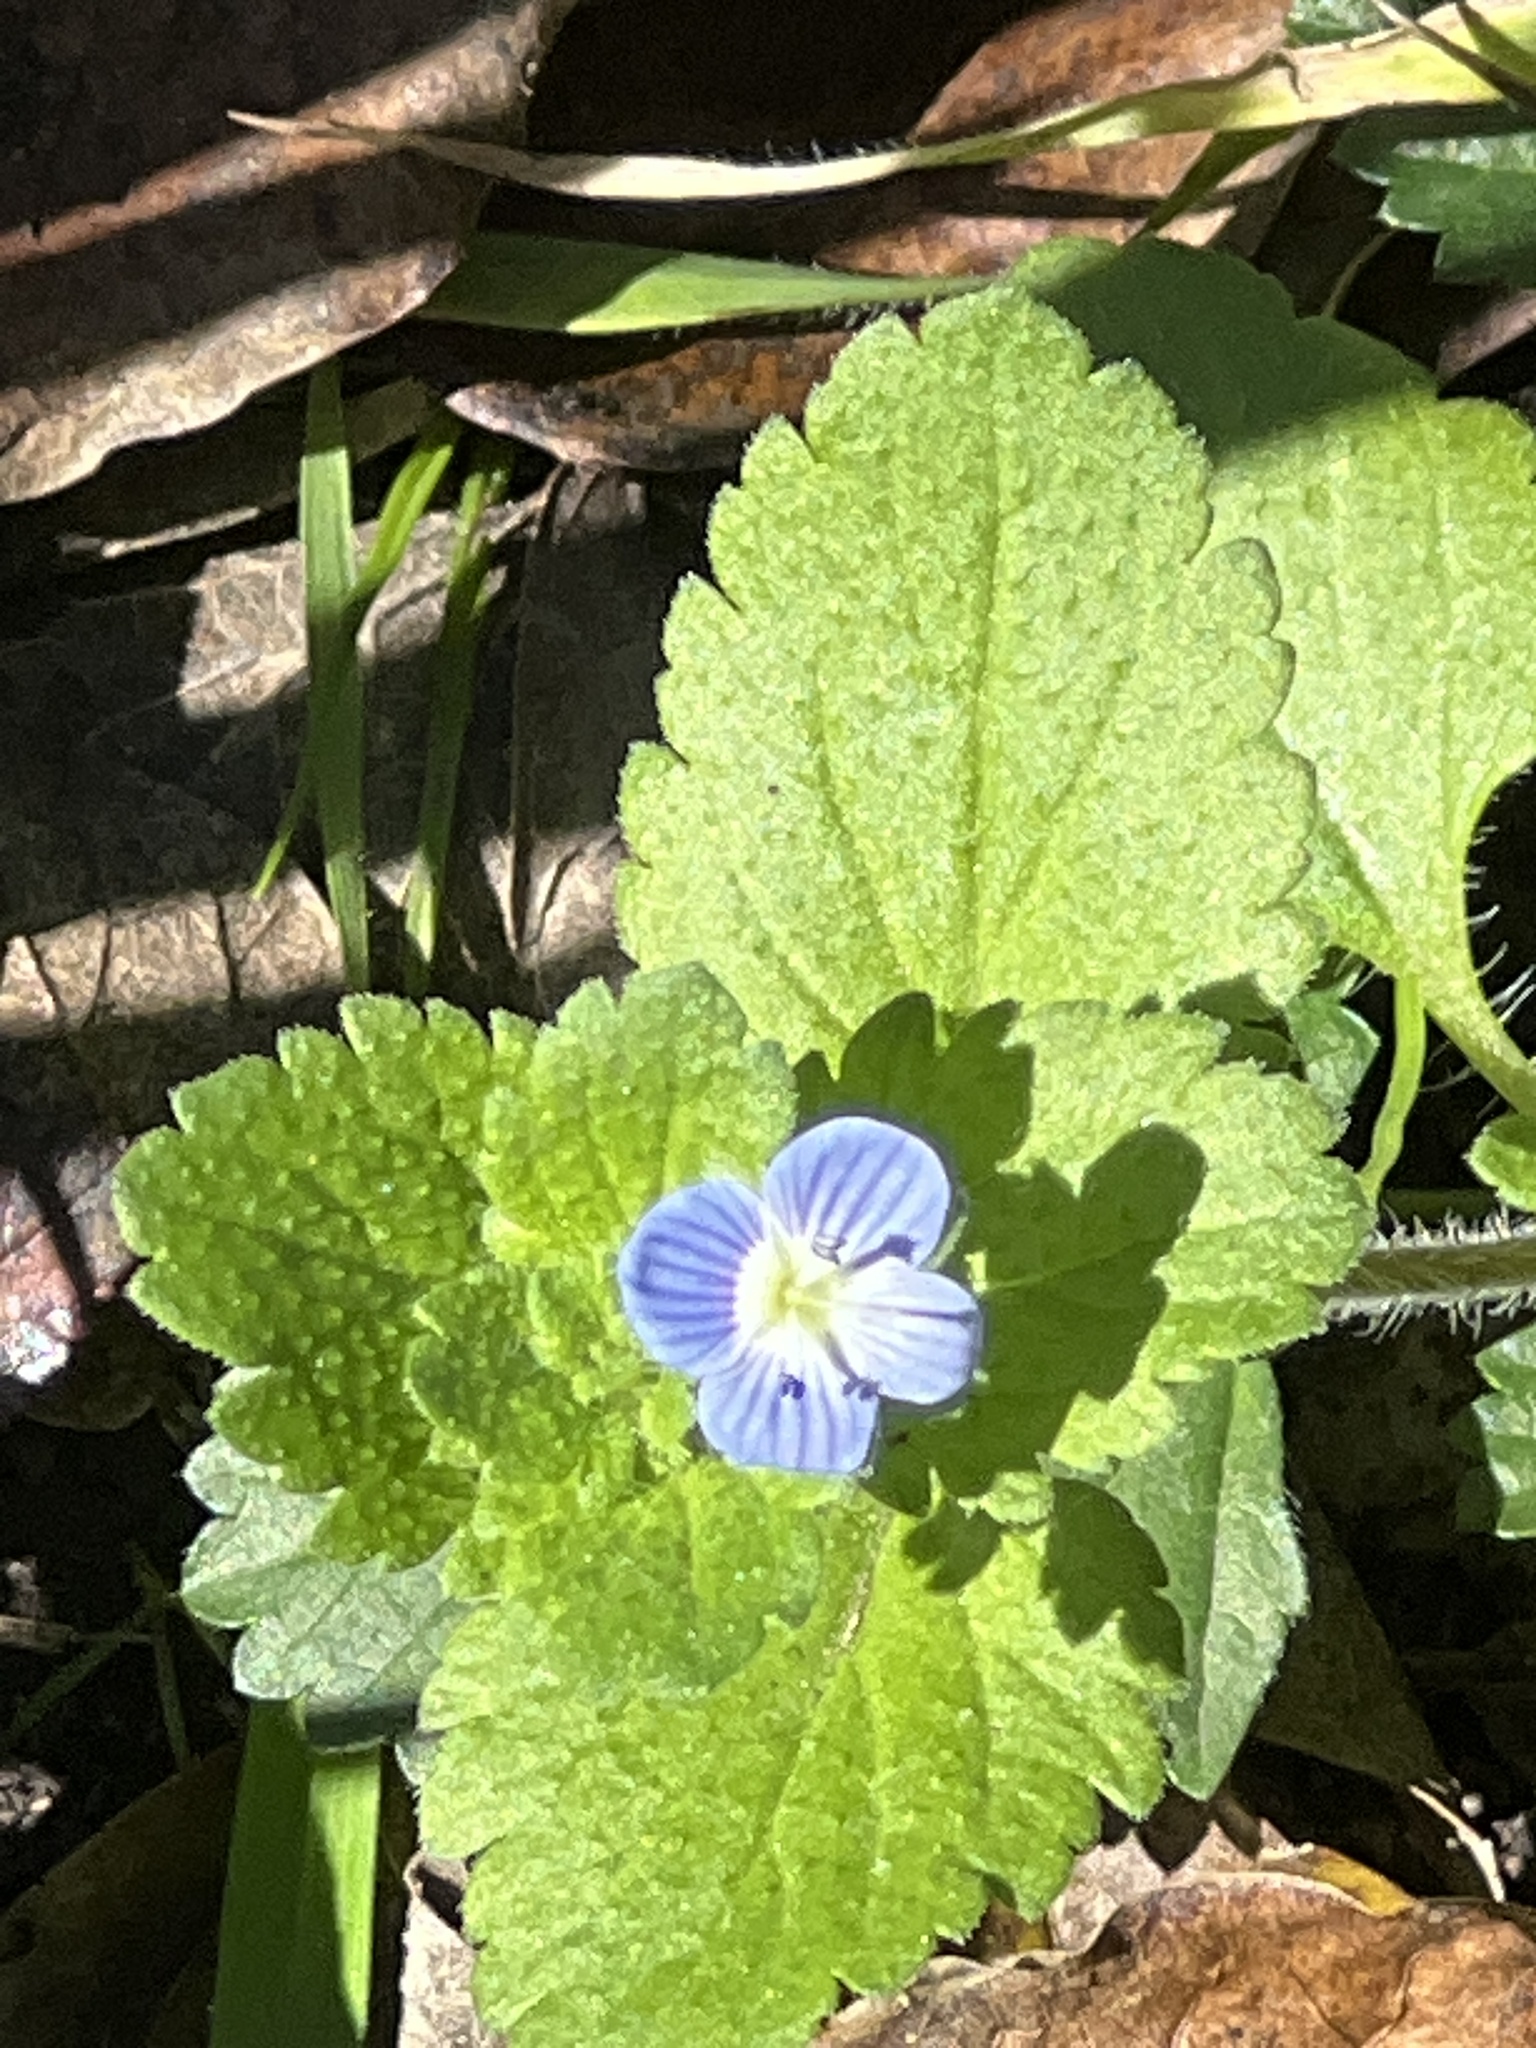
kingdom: Plantae
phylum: Tracheophyta
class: Magnoliopsida
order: Lamiales
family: Plantaginaceae
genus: Veronica
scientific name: Veronica persica
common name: Common field-speedwell
